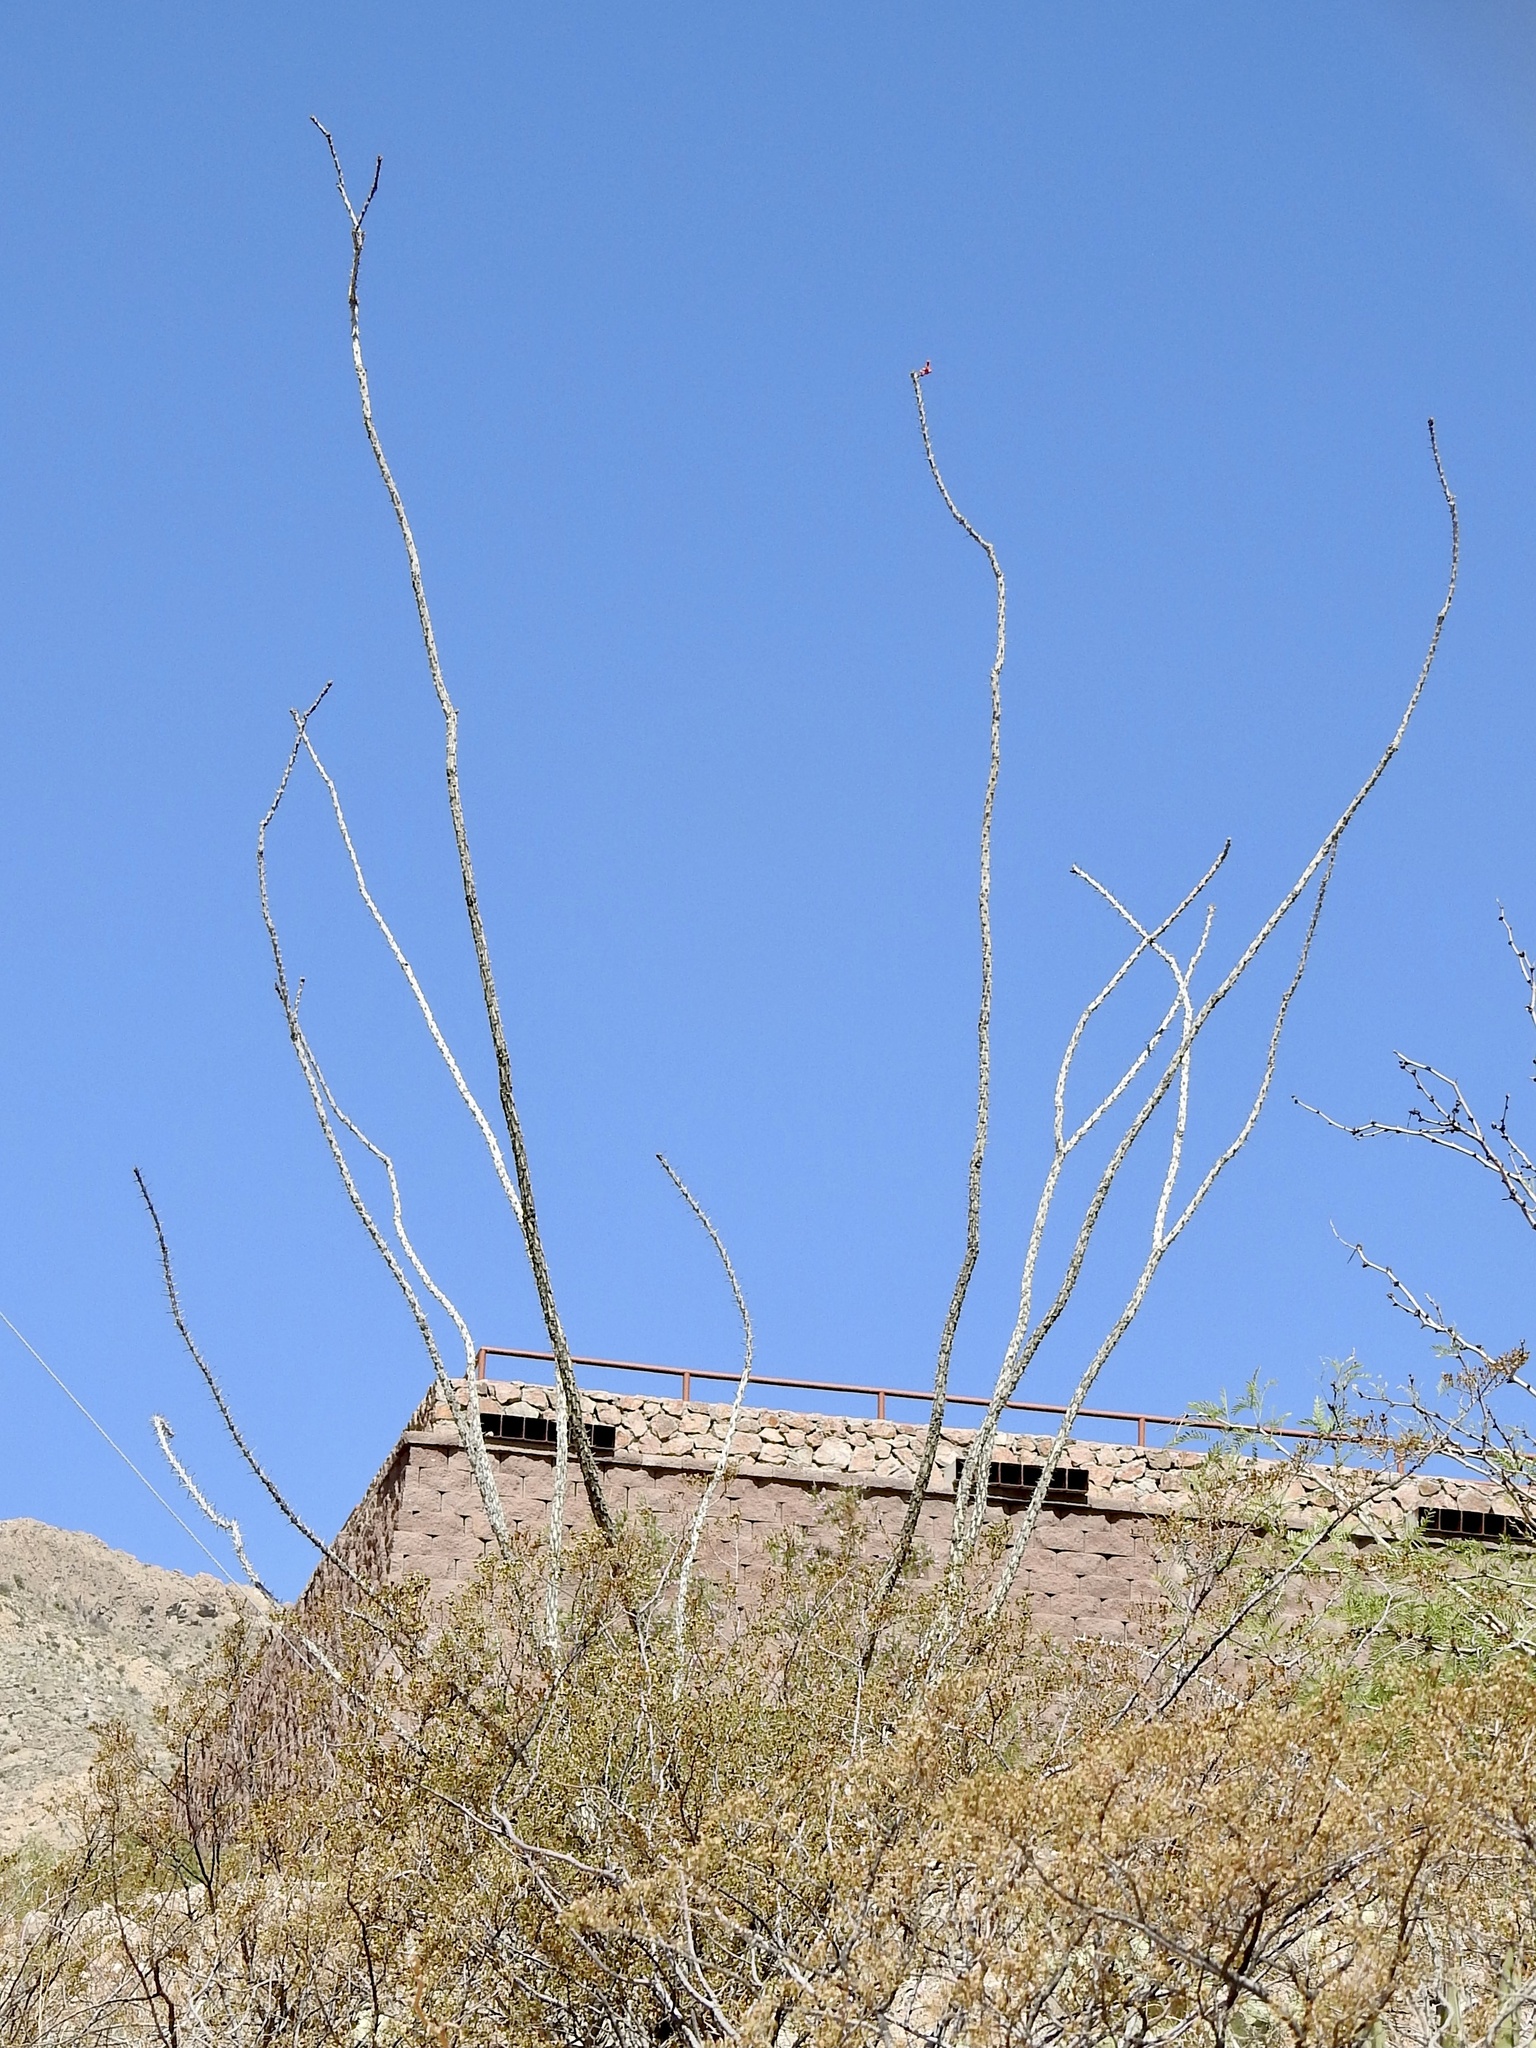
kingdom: Plantae
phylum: Tracheophyta
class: Magnoliopsida
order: Ericales
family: Fouquieriaceae
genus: Fouquieria
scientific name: Fouquieria splendens
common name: Vine-cactus
